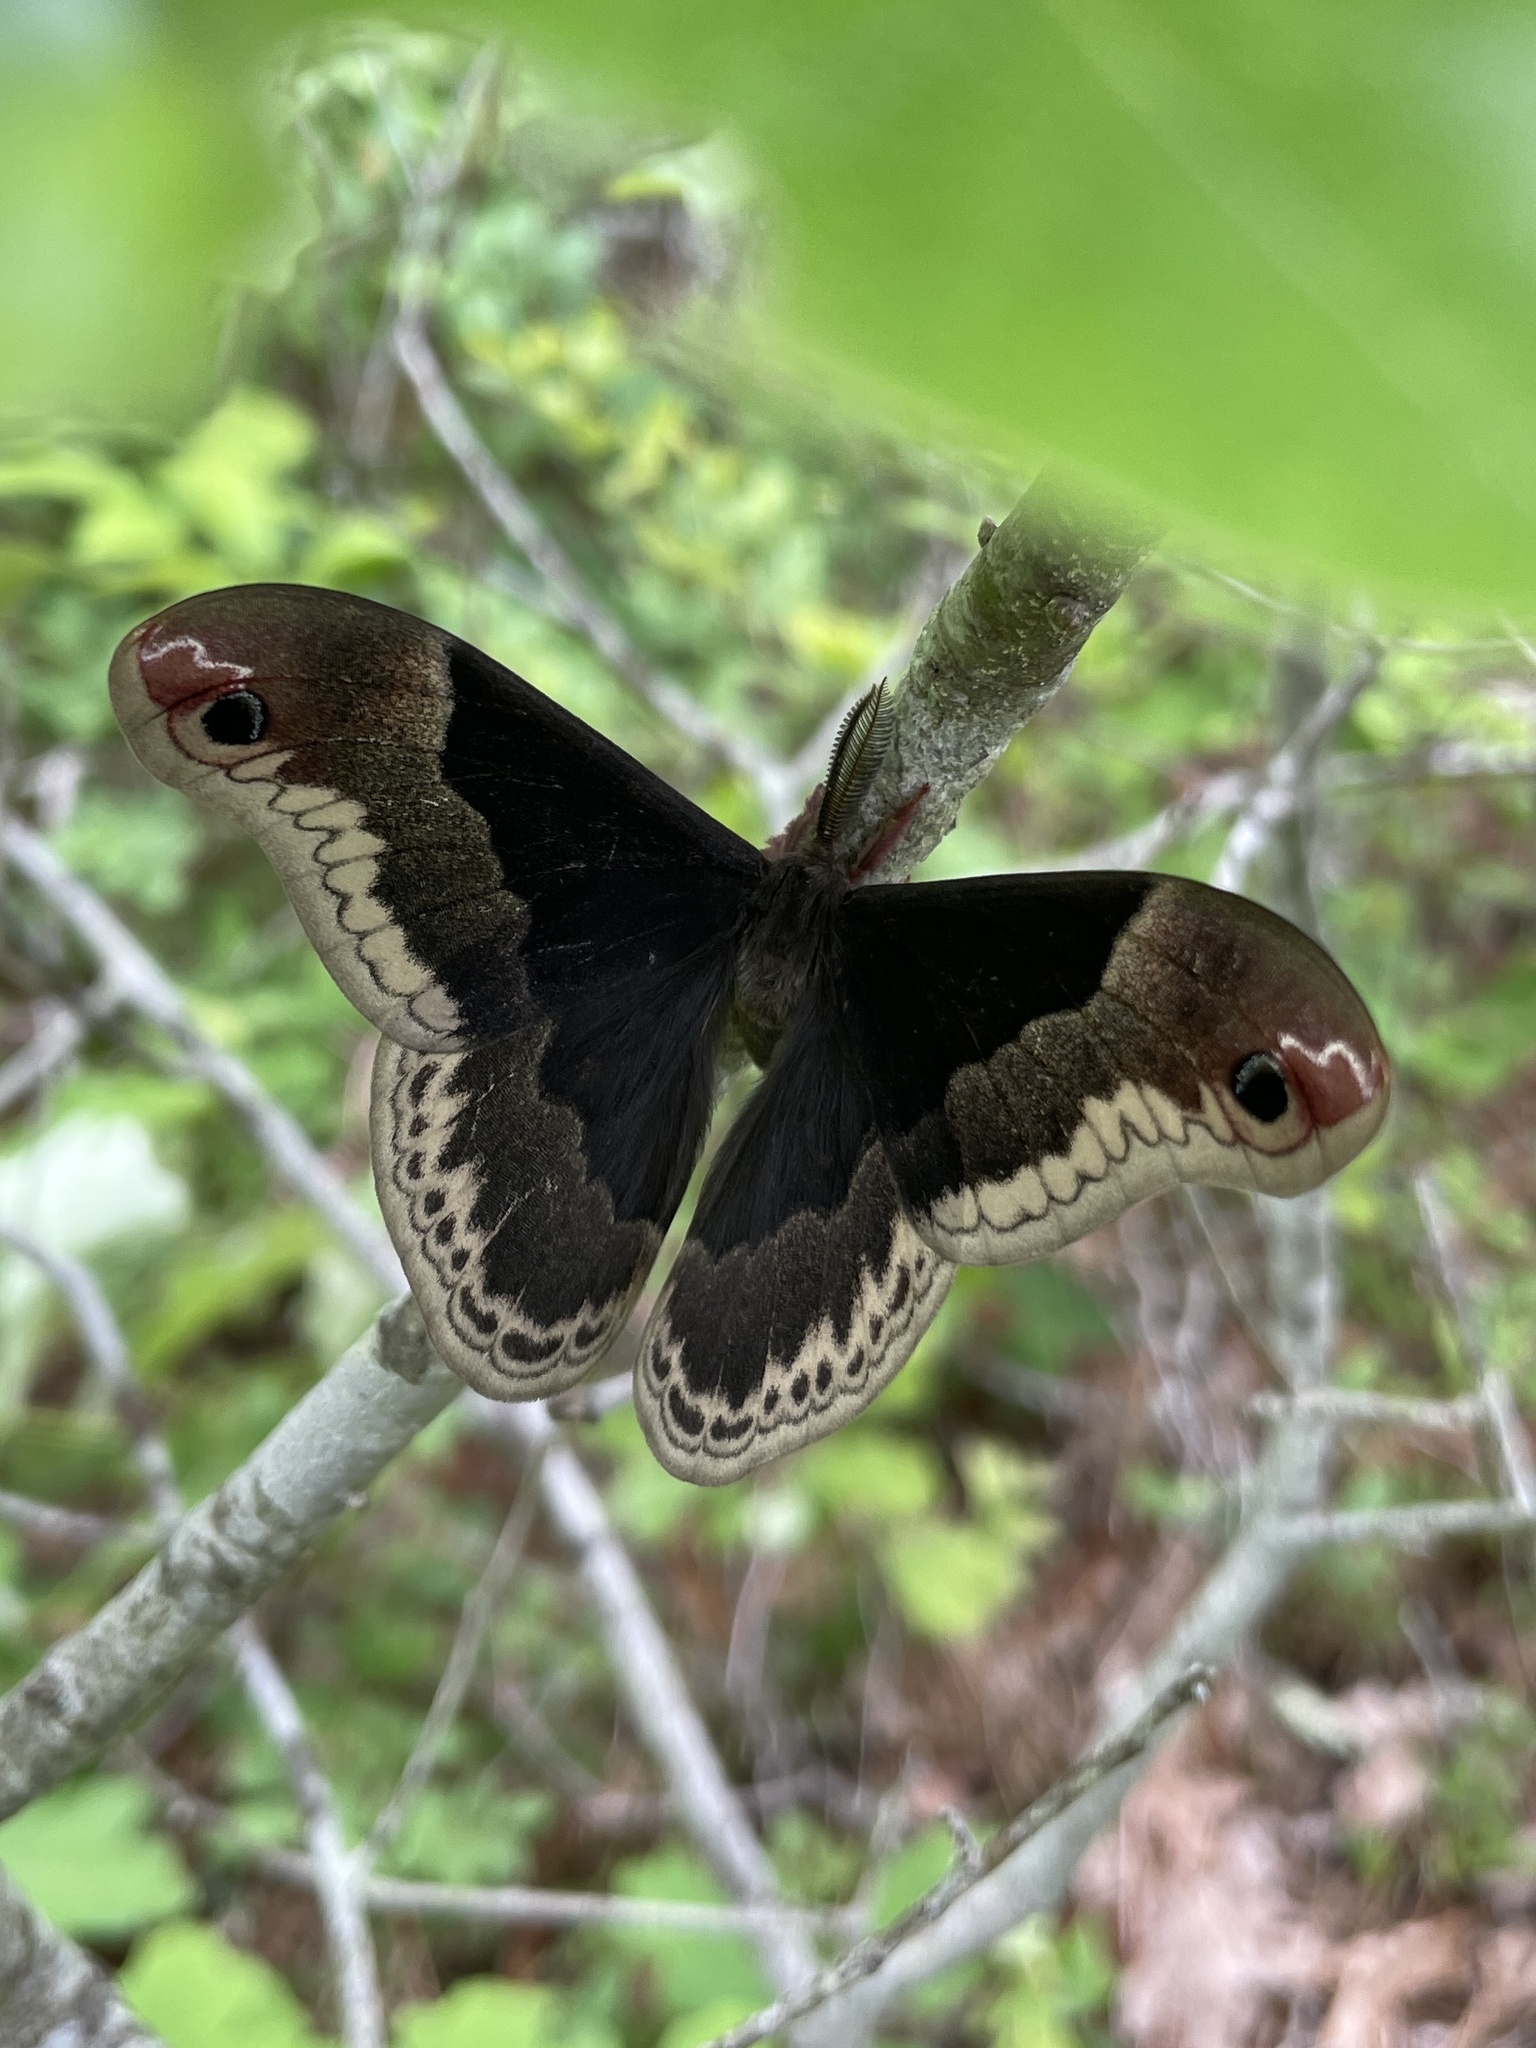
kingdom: Animalia
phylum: Arthropoda
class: Insecta
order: Lepidoptera
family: Saturniidae
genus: Callosamia
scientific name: Callosamia promethea
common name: Promethea silkmoth
